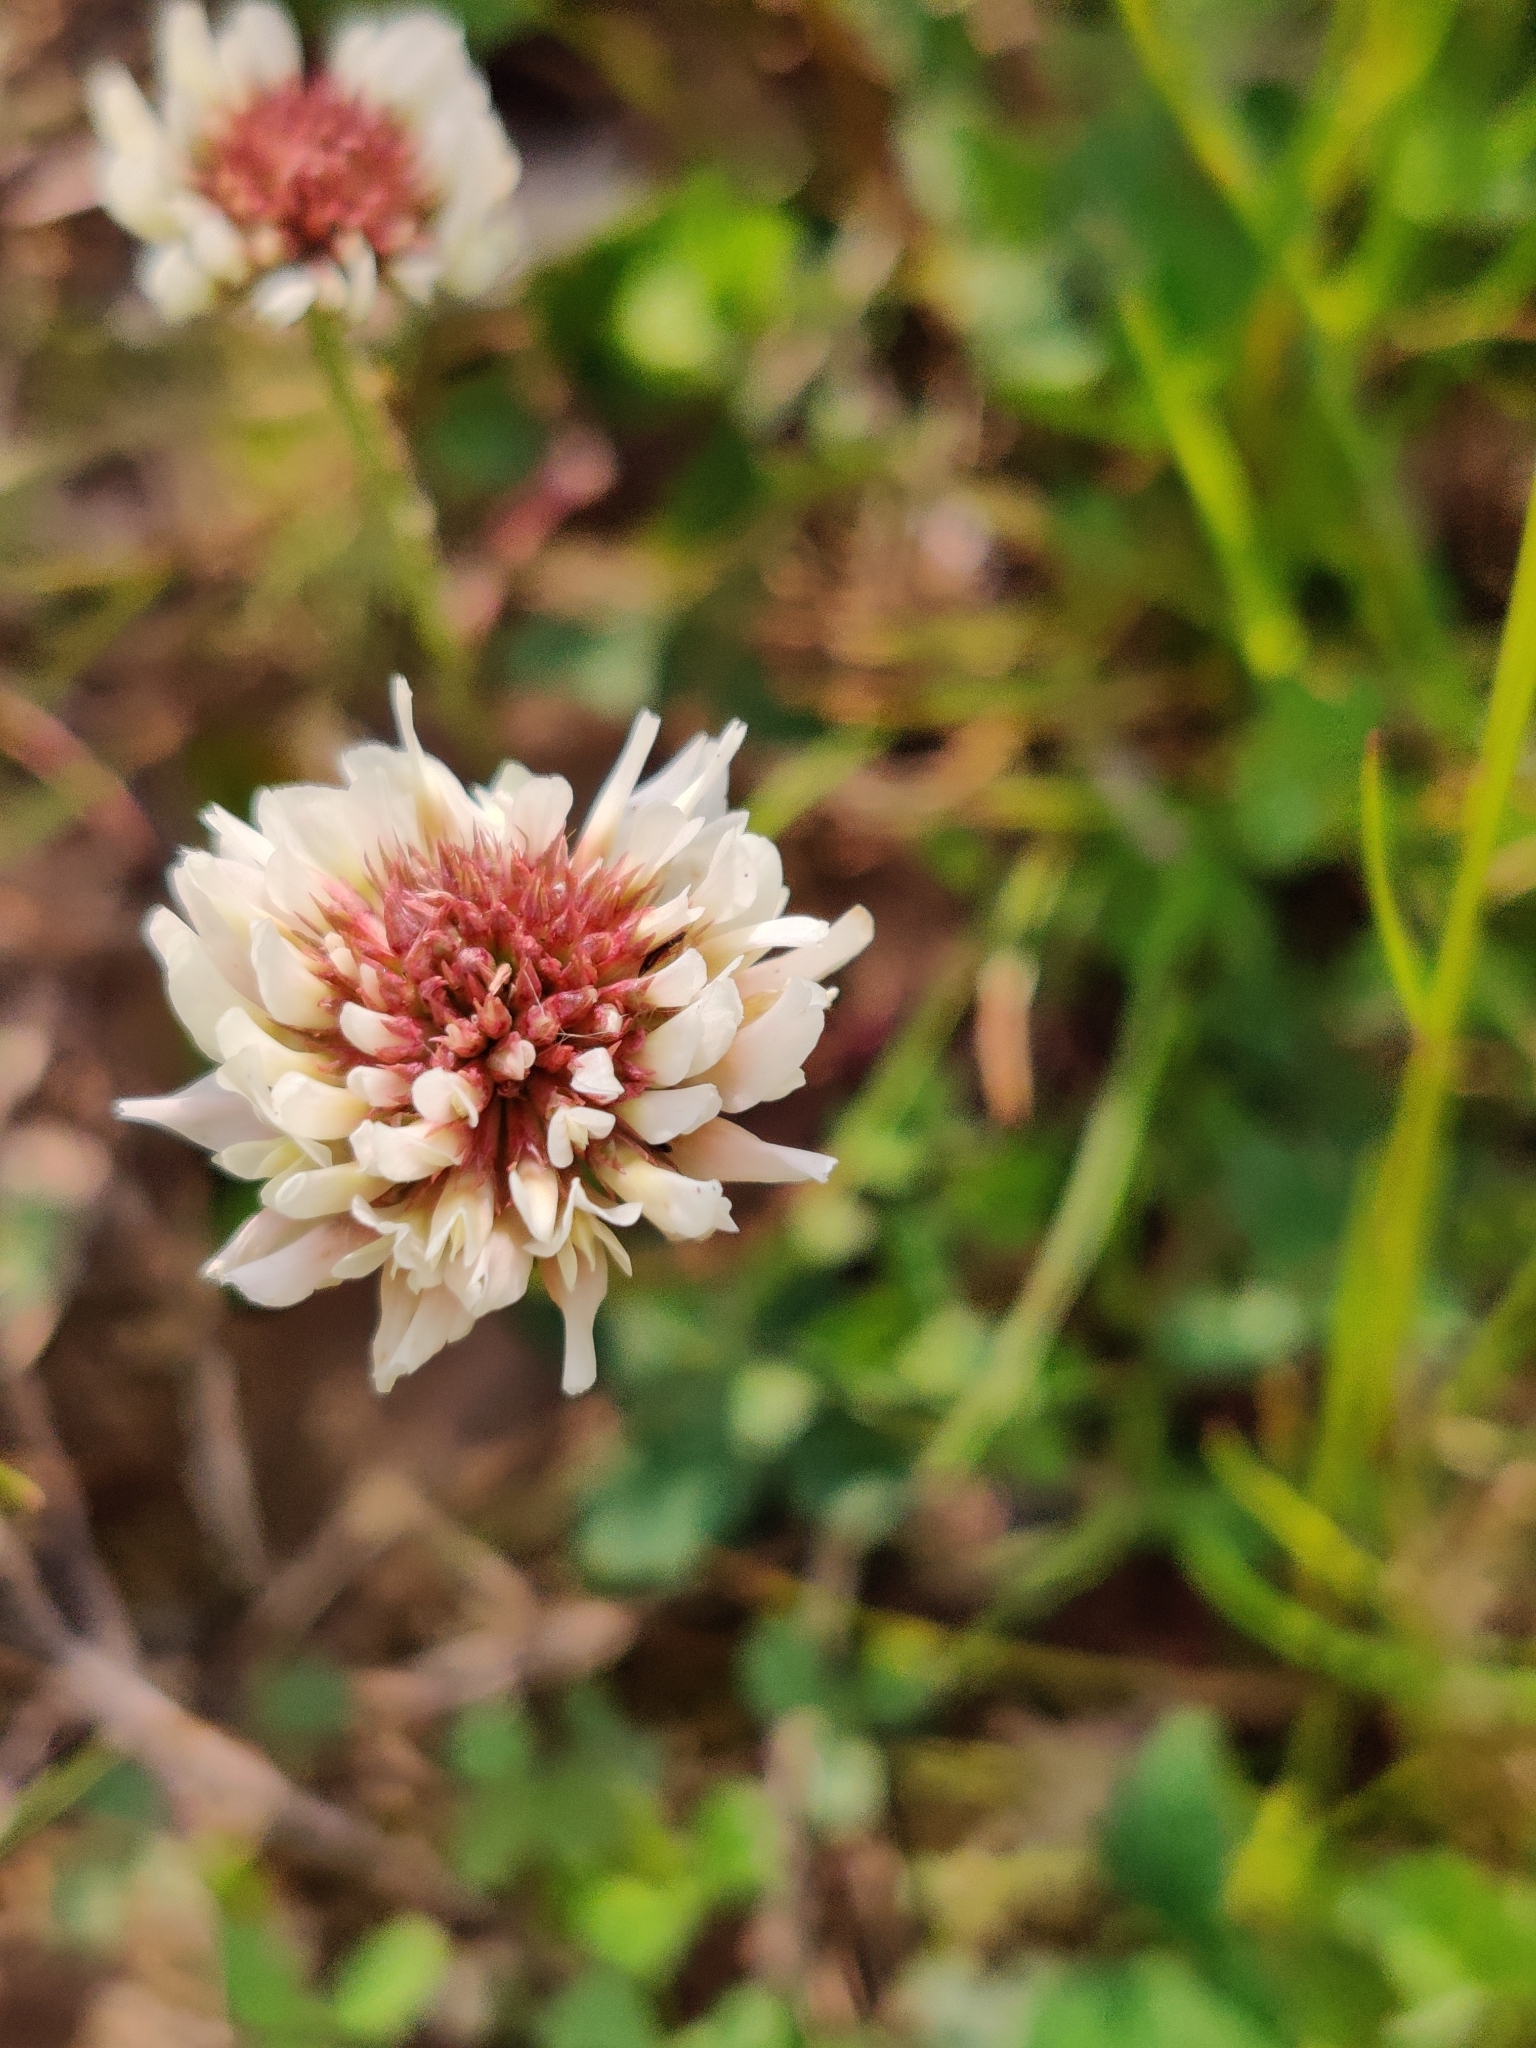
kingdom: Plantae
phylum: Tracheophyta
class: Magnoliopsida
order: Fabales
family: Fabaceae
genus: Trifolium
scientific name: Trifolium repens
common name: White clover
